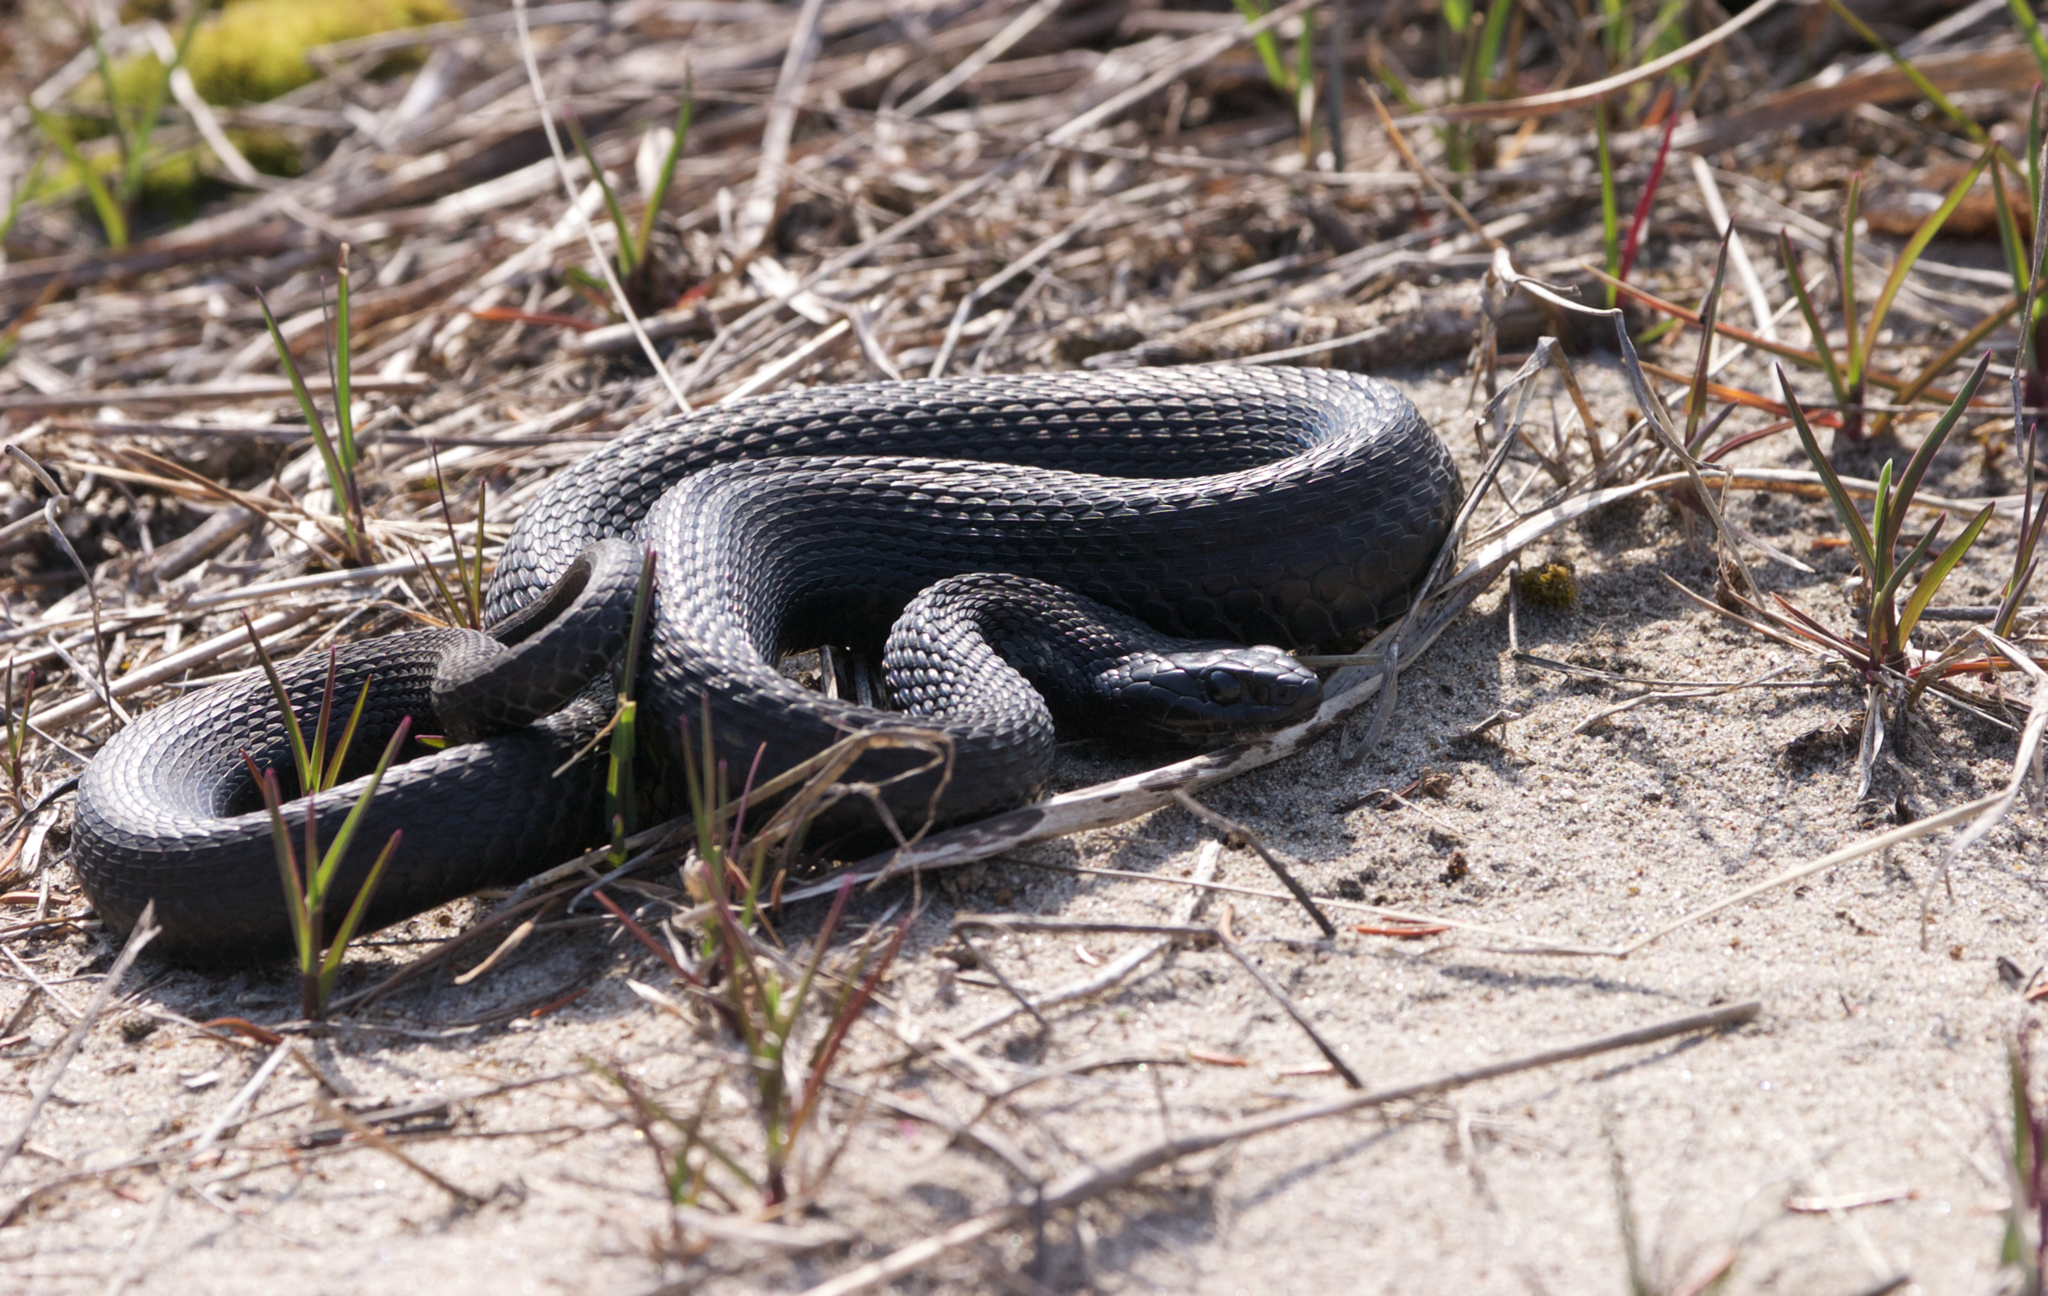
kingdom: Animalia
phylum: Chordata
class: Squamata
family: Colubridae
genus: Thamnophis
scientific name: Thamnophis sirtalis
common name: Common garter snake
